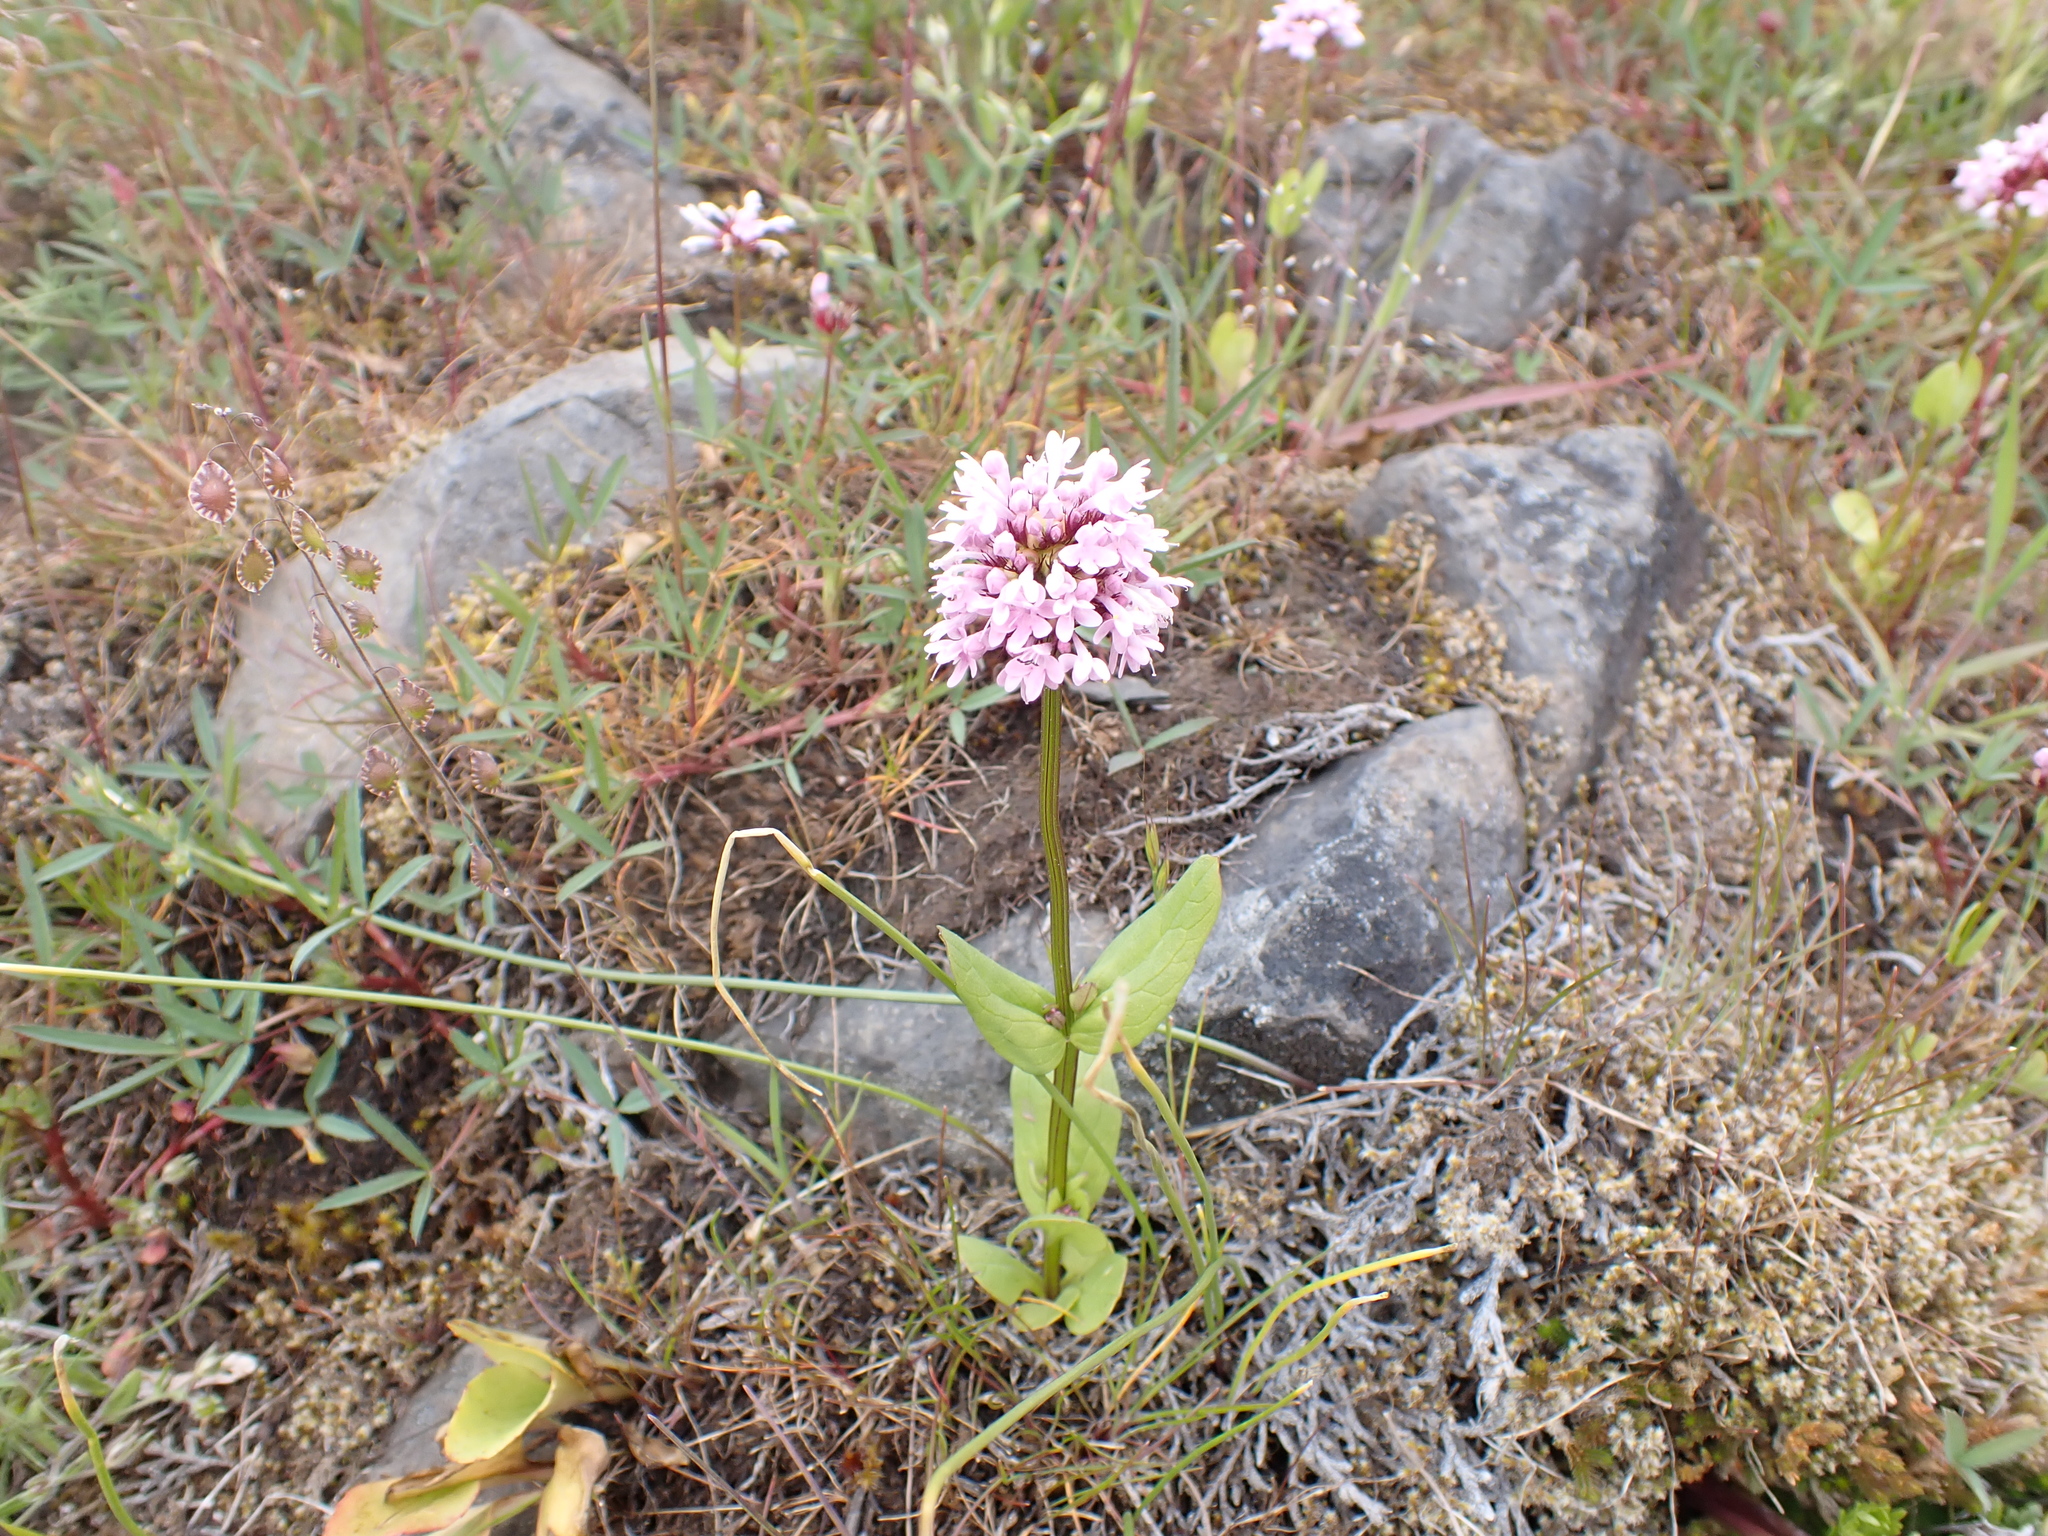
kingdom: Plantae
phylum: Tracheophyta
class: Magnoliopsida
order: Dipsacales
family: Caprifoliaceae
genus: Plectritis
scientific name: Plectritis congesta
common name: Pink plectritis
